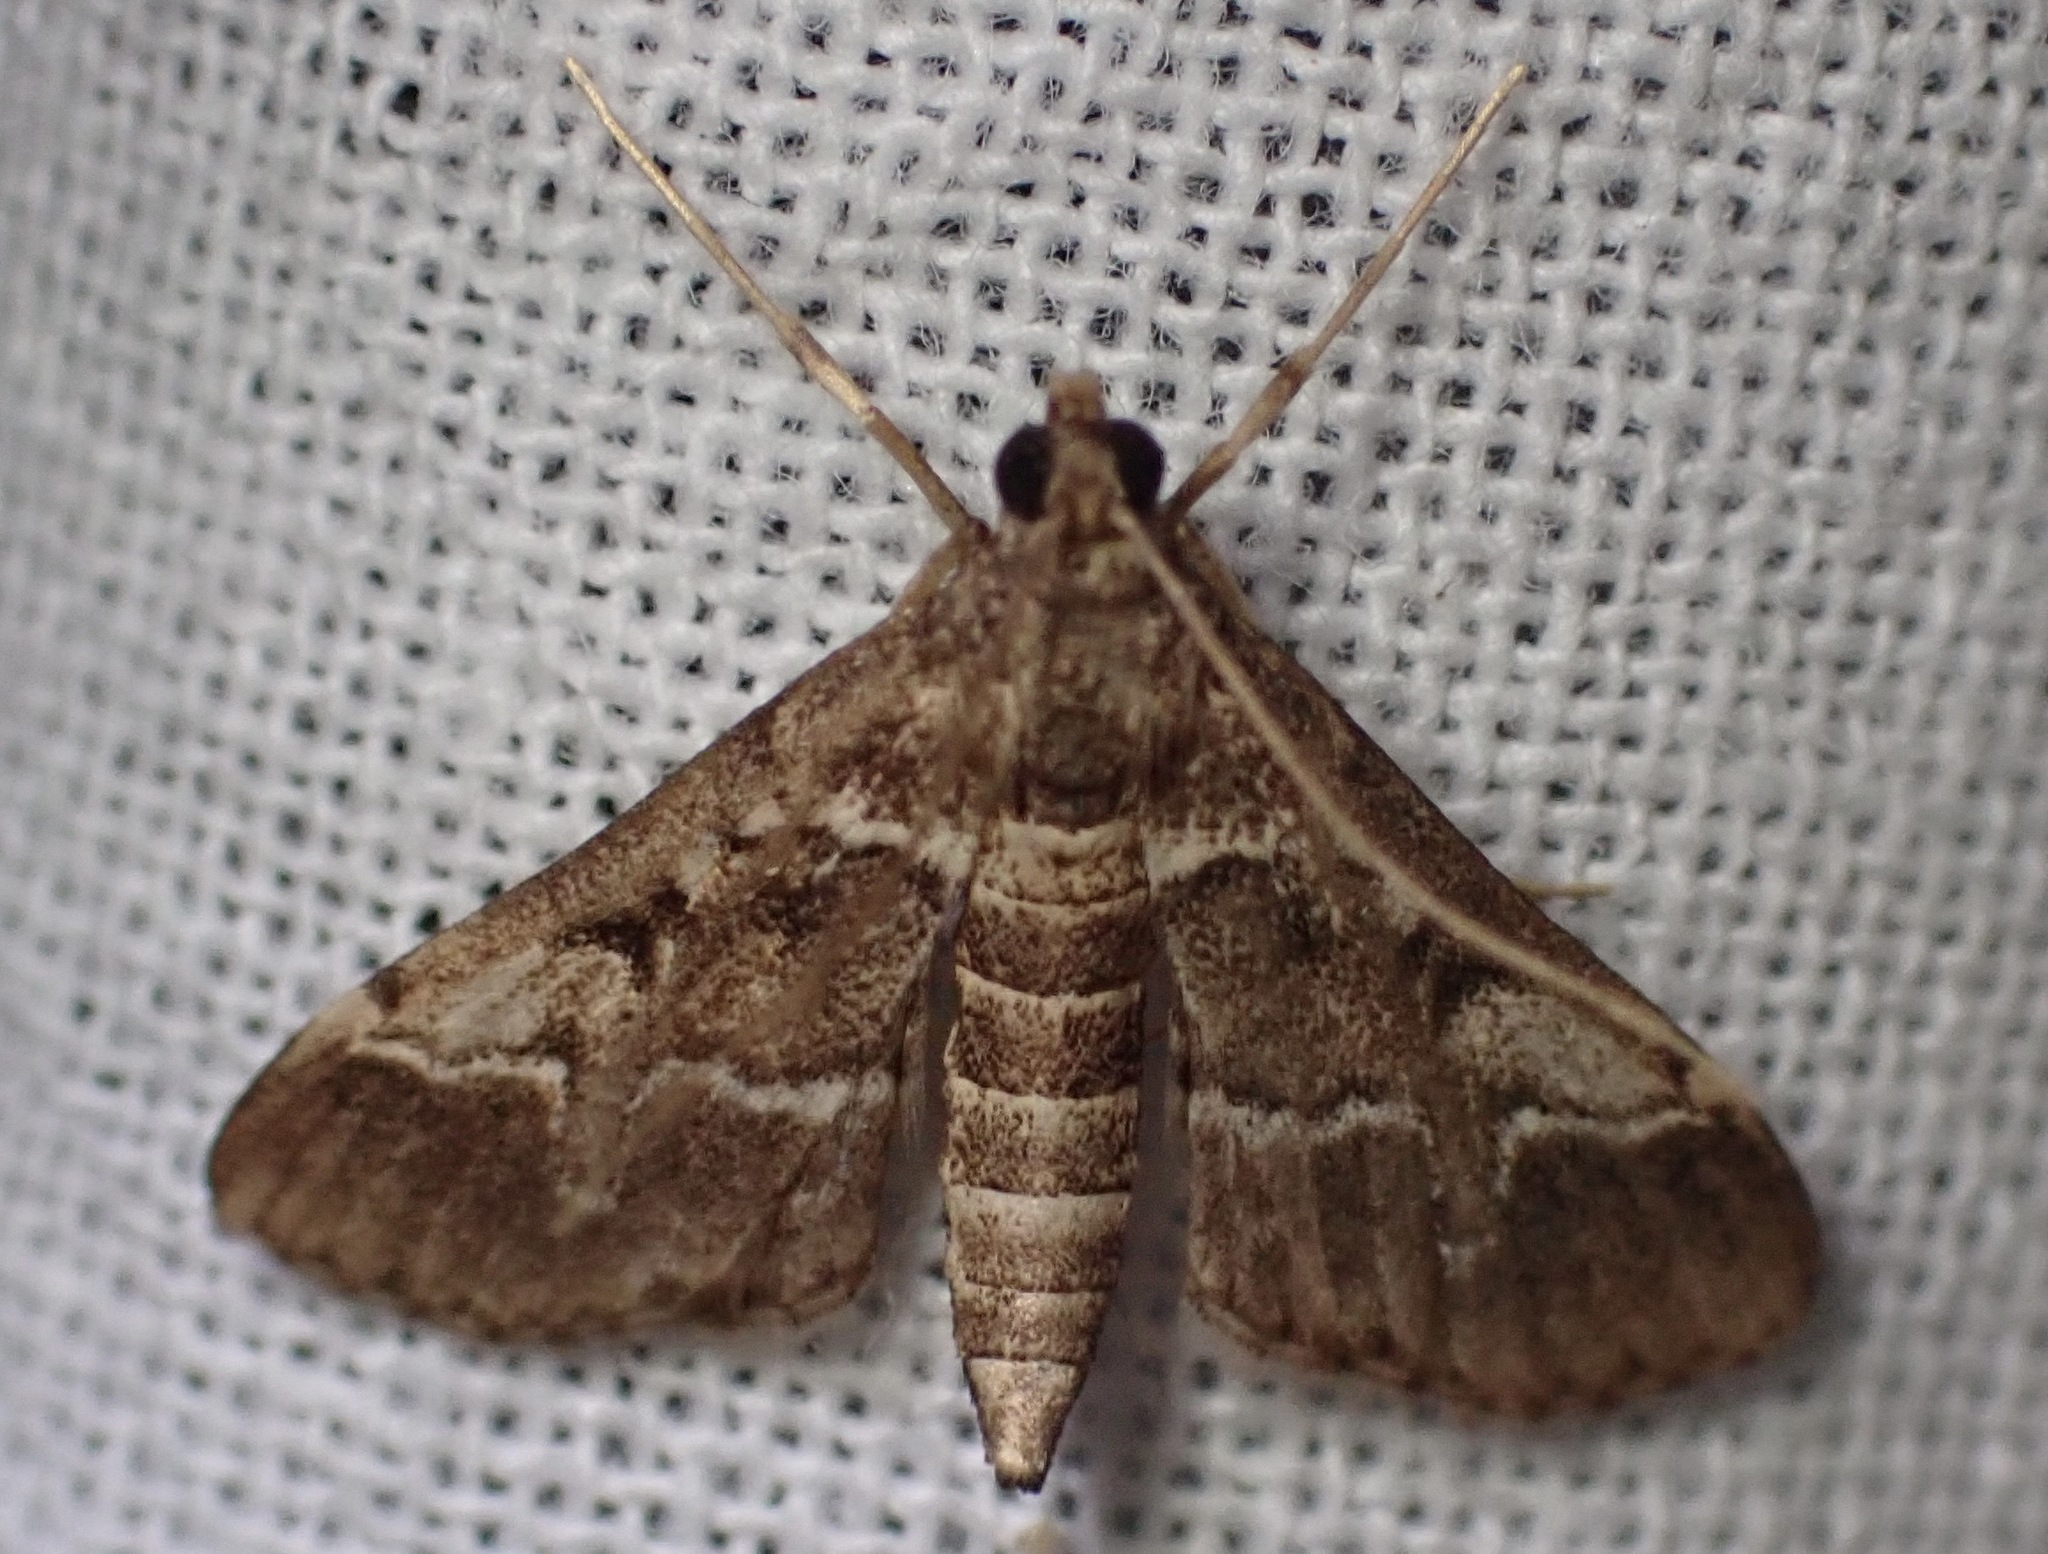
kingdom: Animalia
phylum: Arthropoda
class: Insecta
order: Lepidoptera
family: Crambidae
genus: Duponchelia
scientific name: Duponchelia fovealis
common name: Crambid moth
